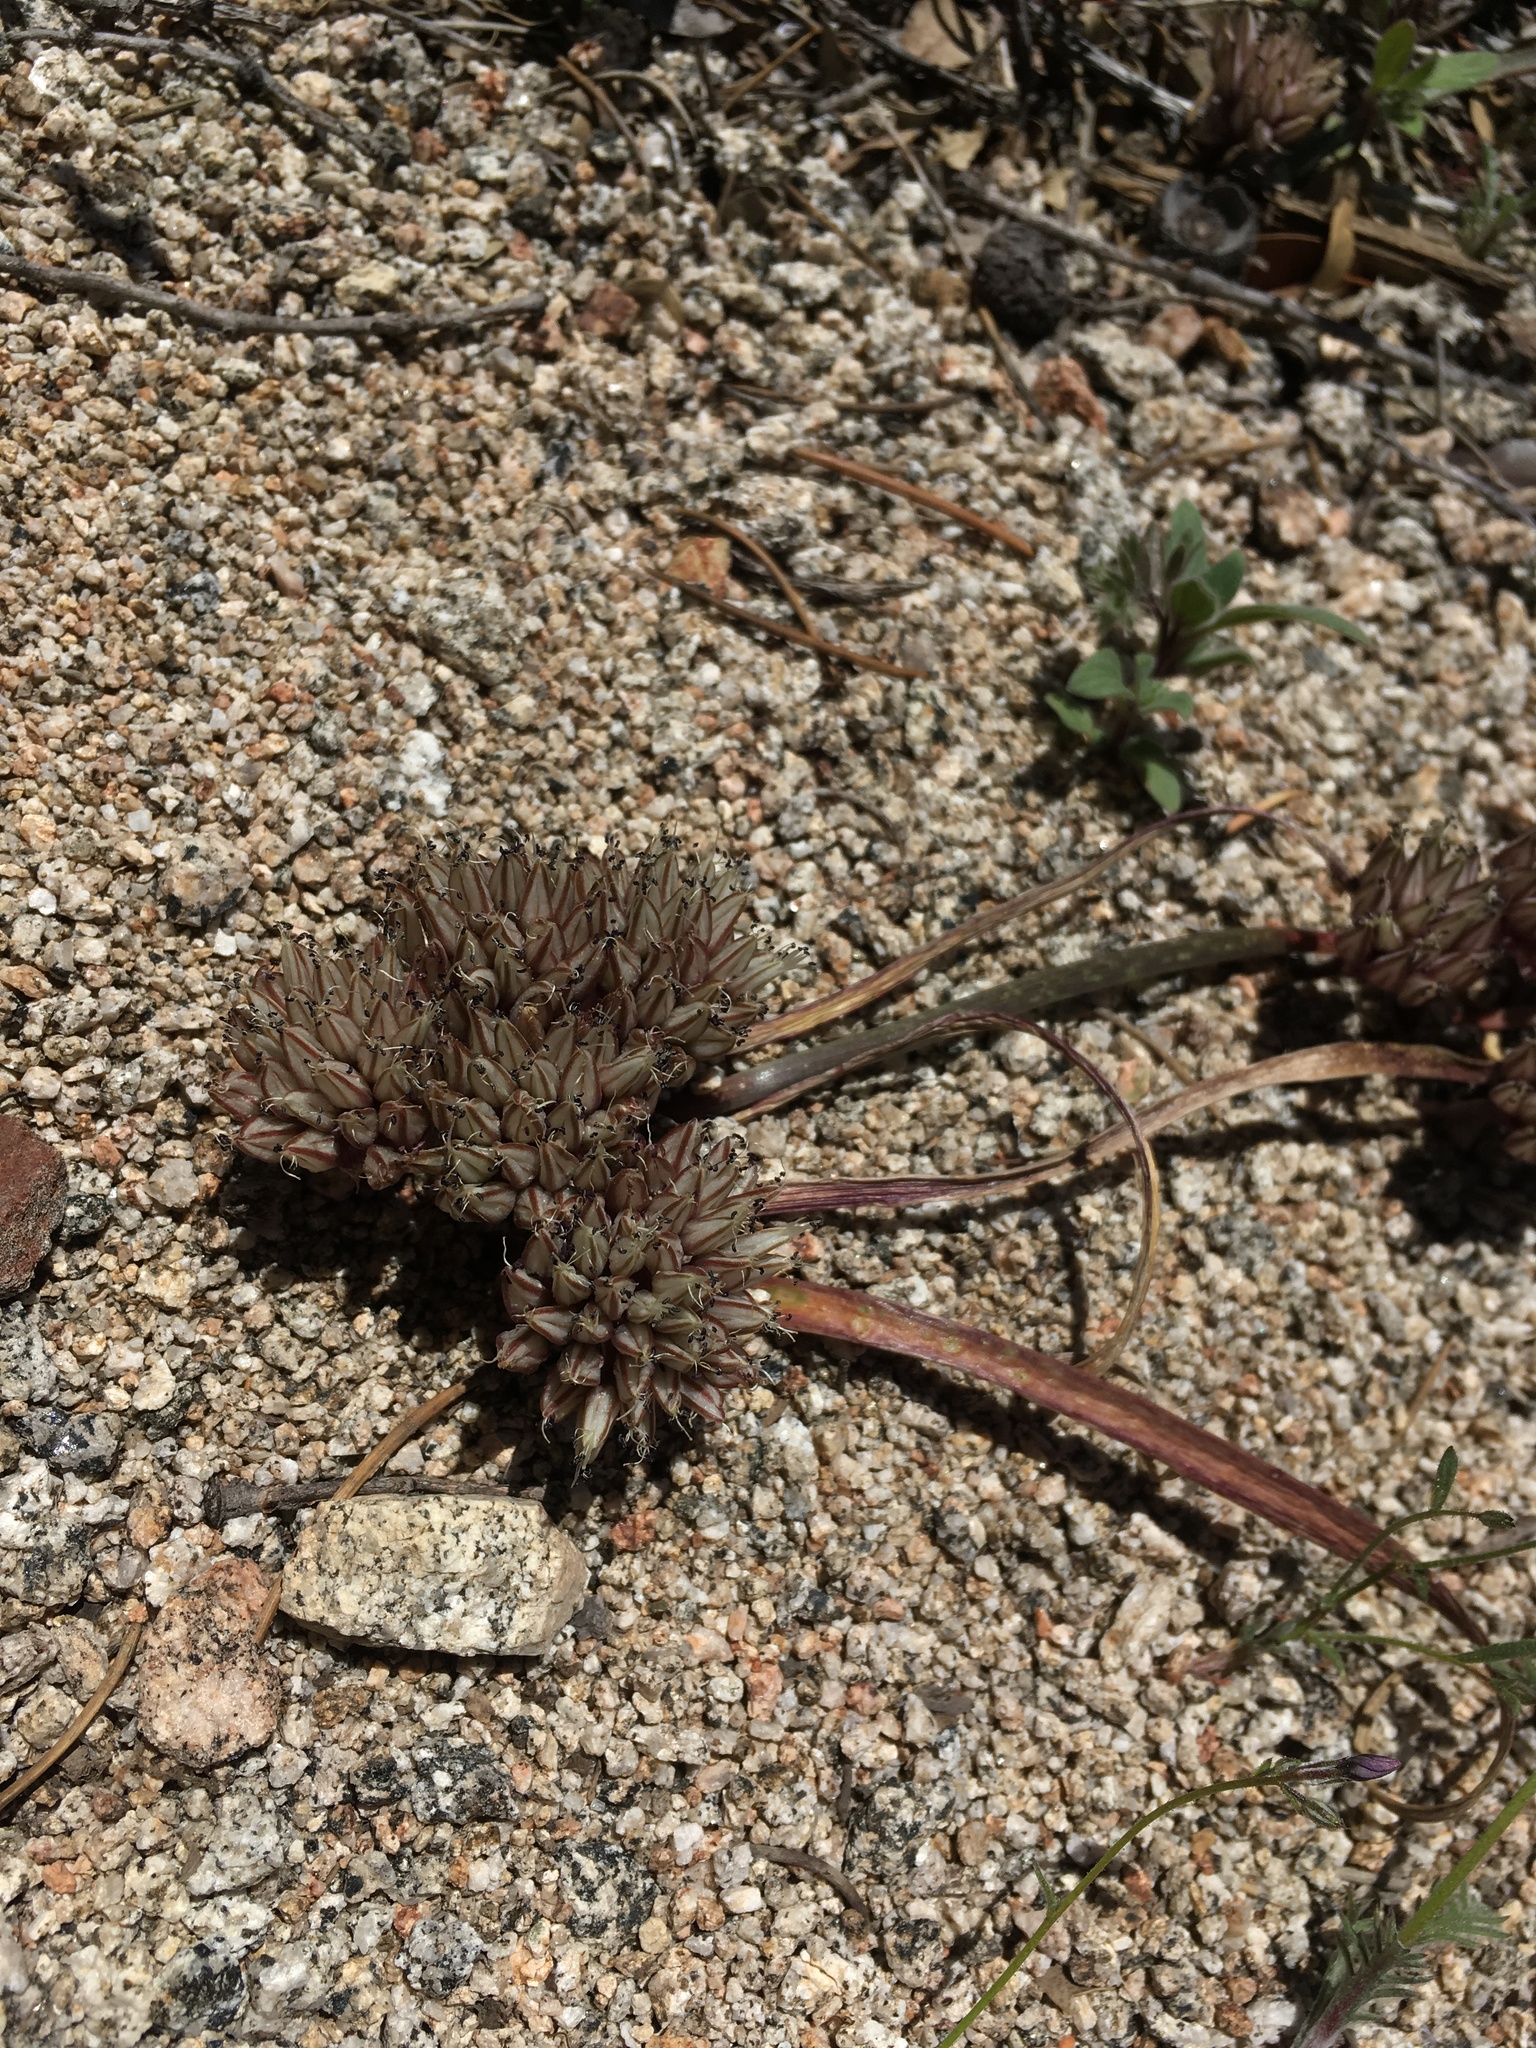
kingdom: Plantae
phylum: Tracheophyta
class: Liliopsida
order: Asparagales
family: Amaryllidaceae
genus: Allium
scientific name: Allium burlewii
